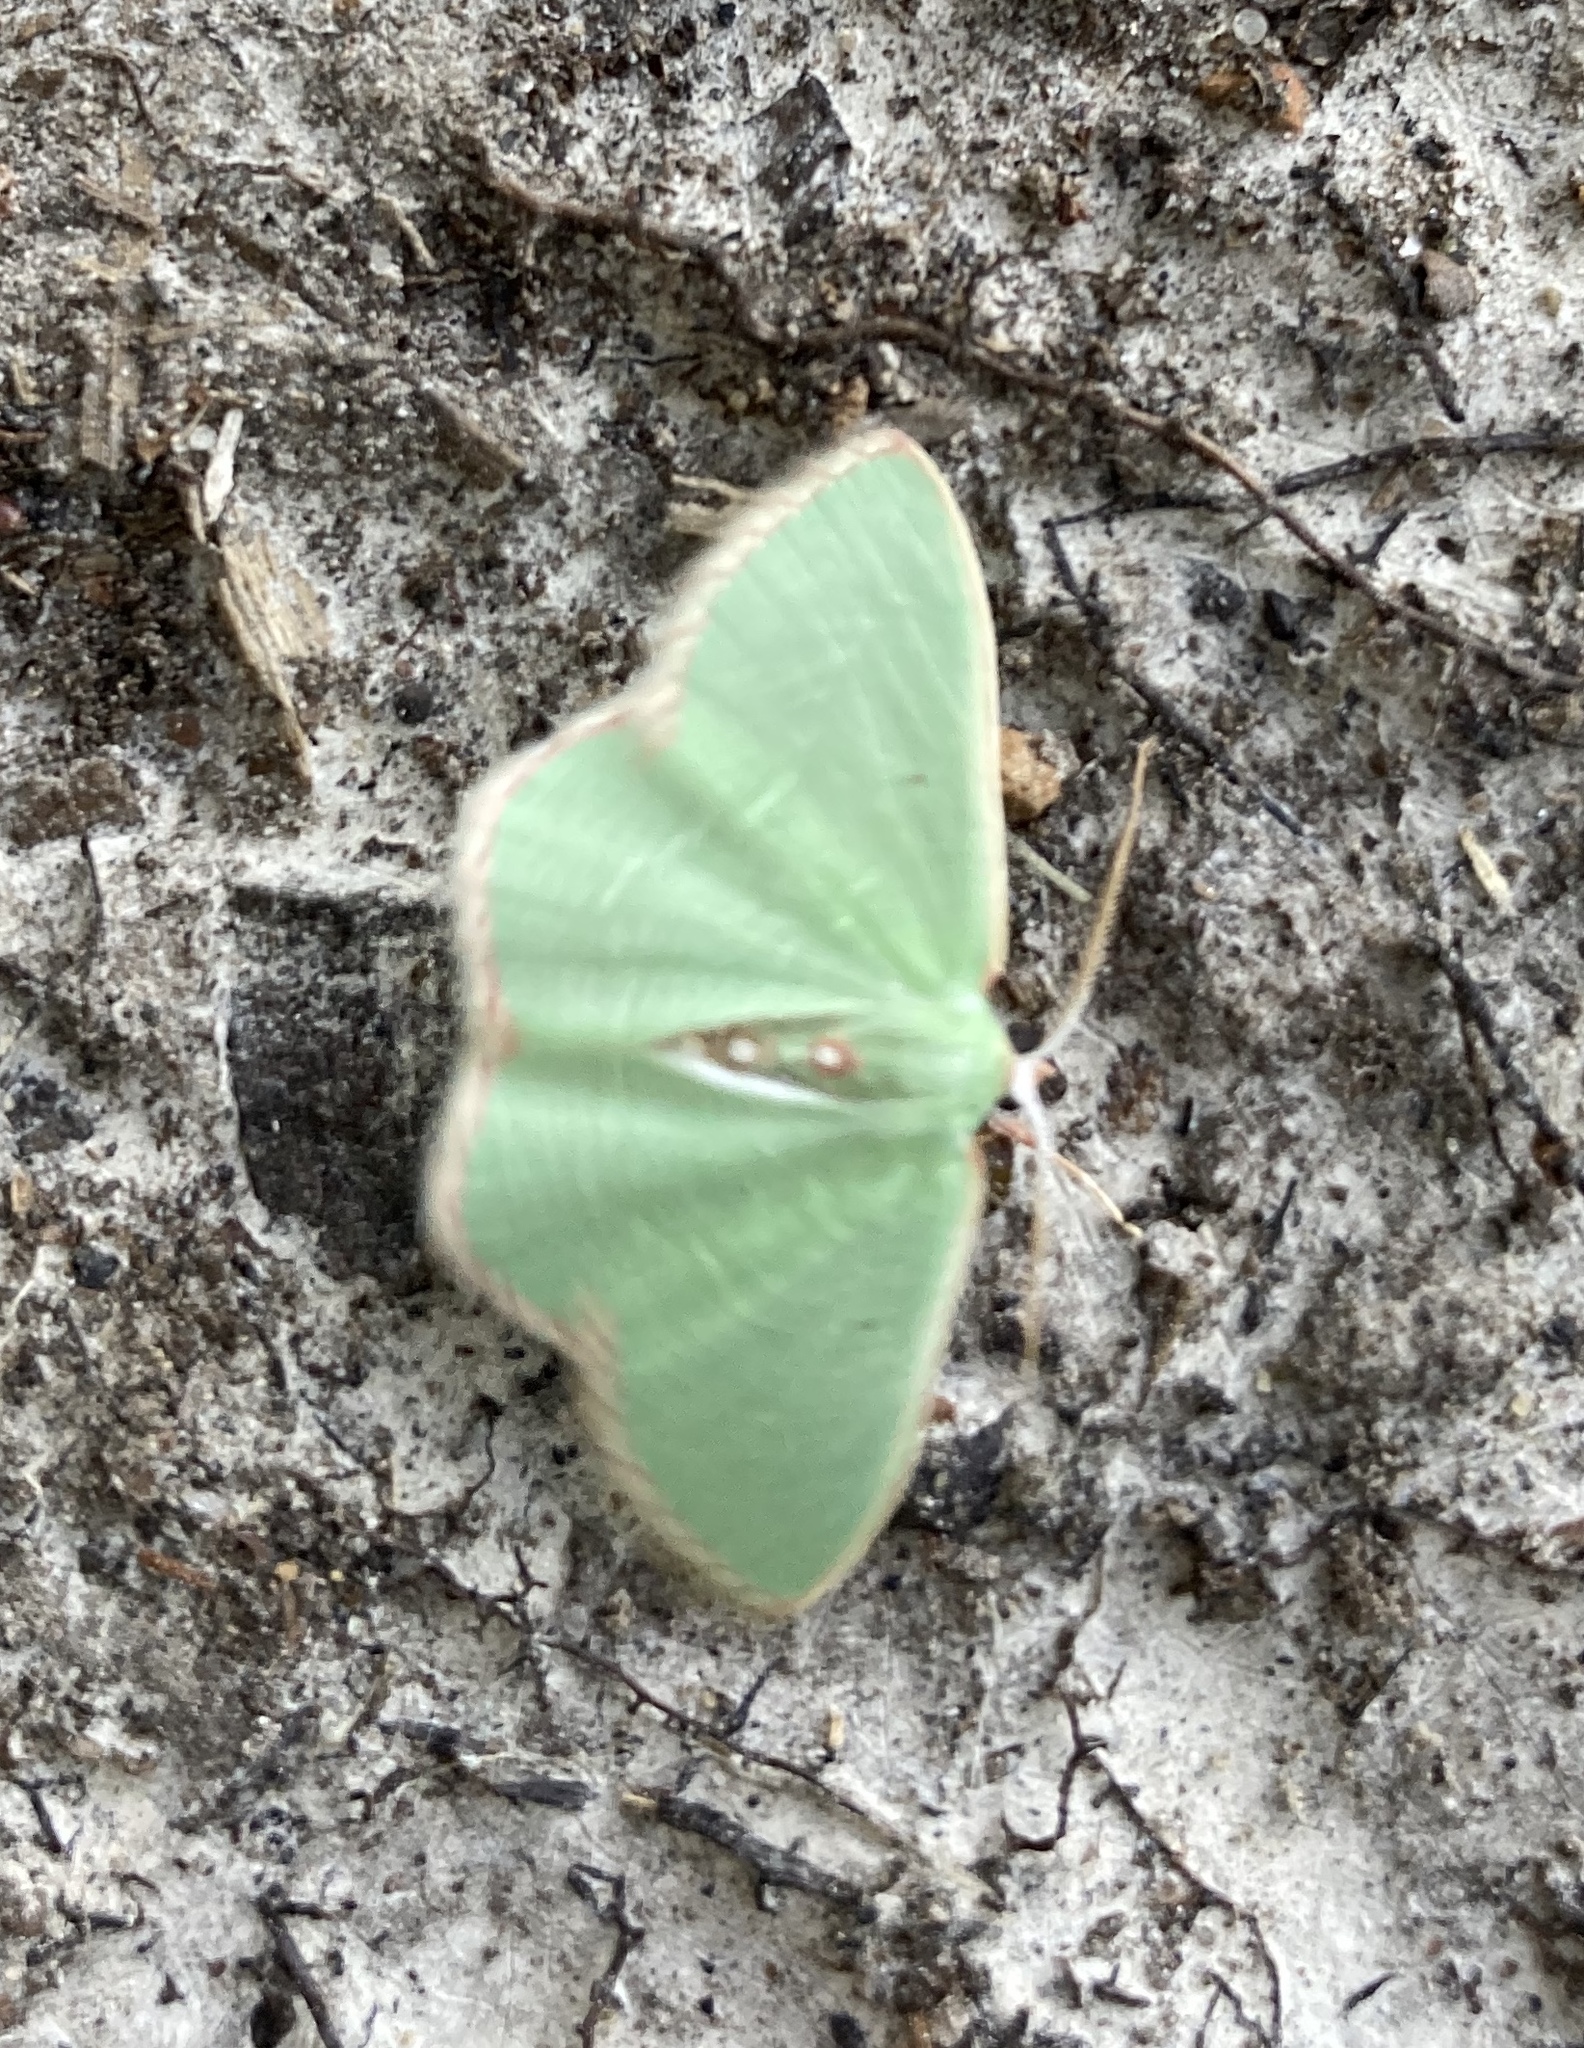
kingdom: Animalia
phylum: Arthropoda
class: Insecta
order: Lepidoptera
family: Geometridae
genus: Nemoria
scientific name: Nemoria lixaria
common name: Red-bordered emerald
